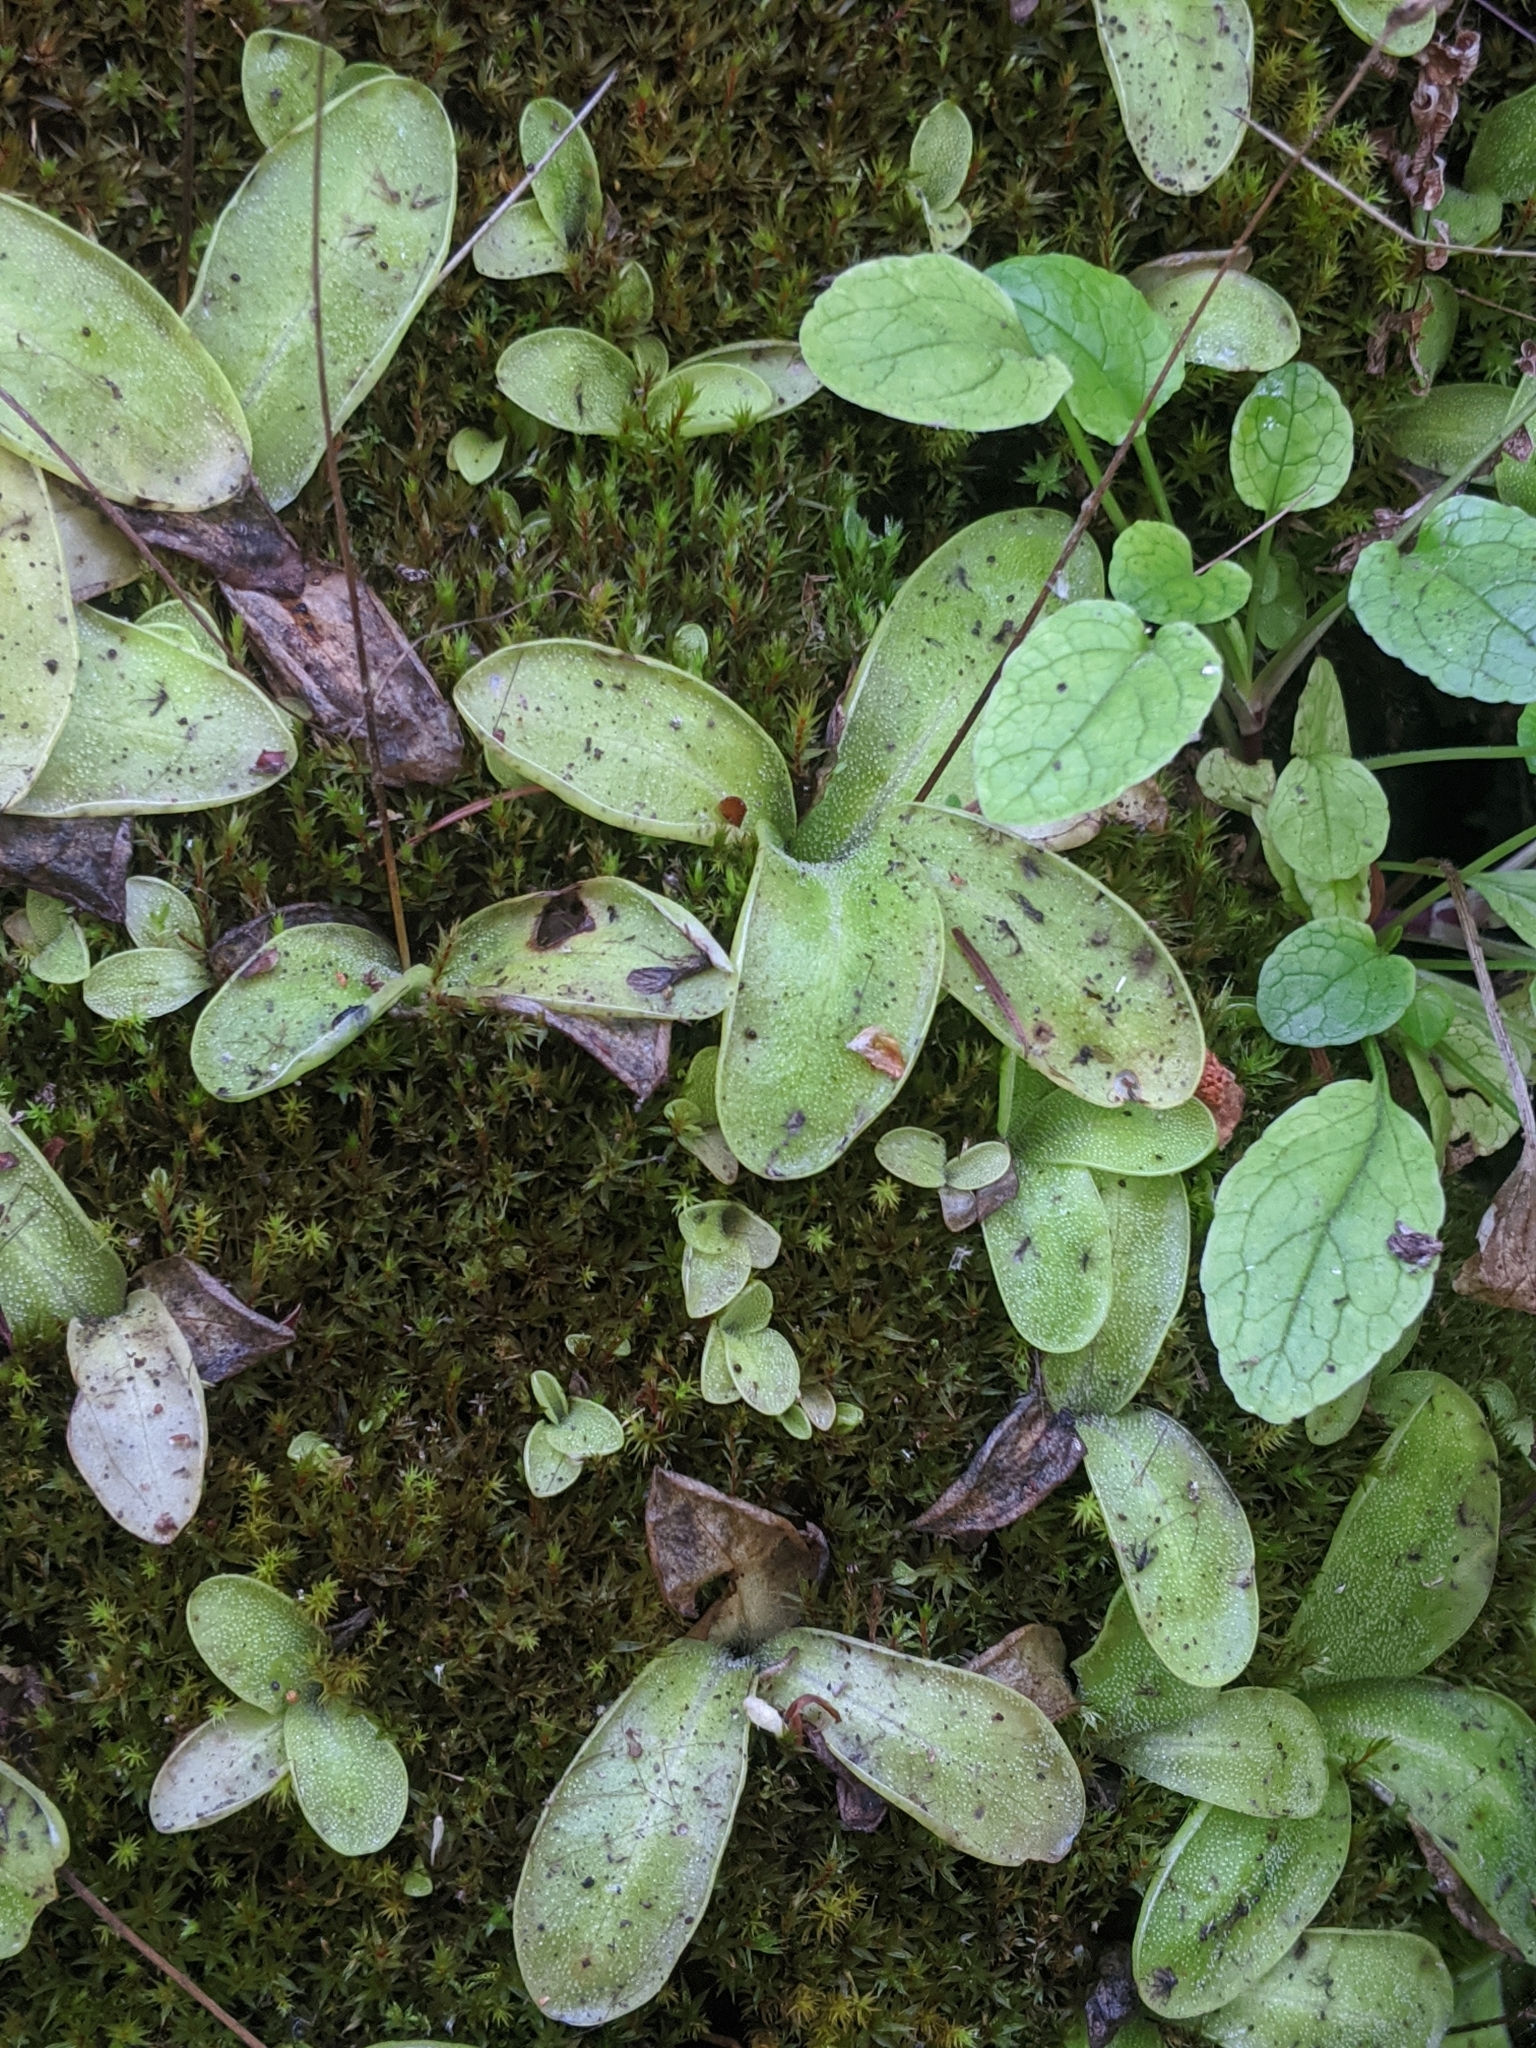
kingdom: Plantae
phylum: Tracheophyta
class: Magnoliopsida
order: Lamiales
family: Lentibulariaceae
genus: Pinguicula
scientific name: Pinguicula macroceras
